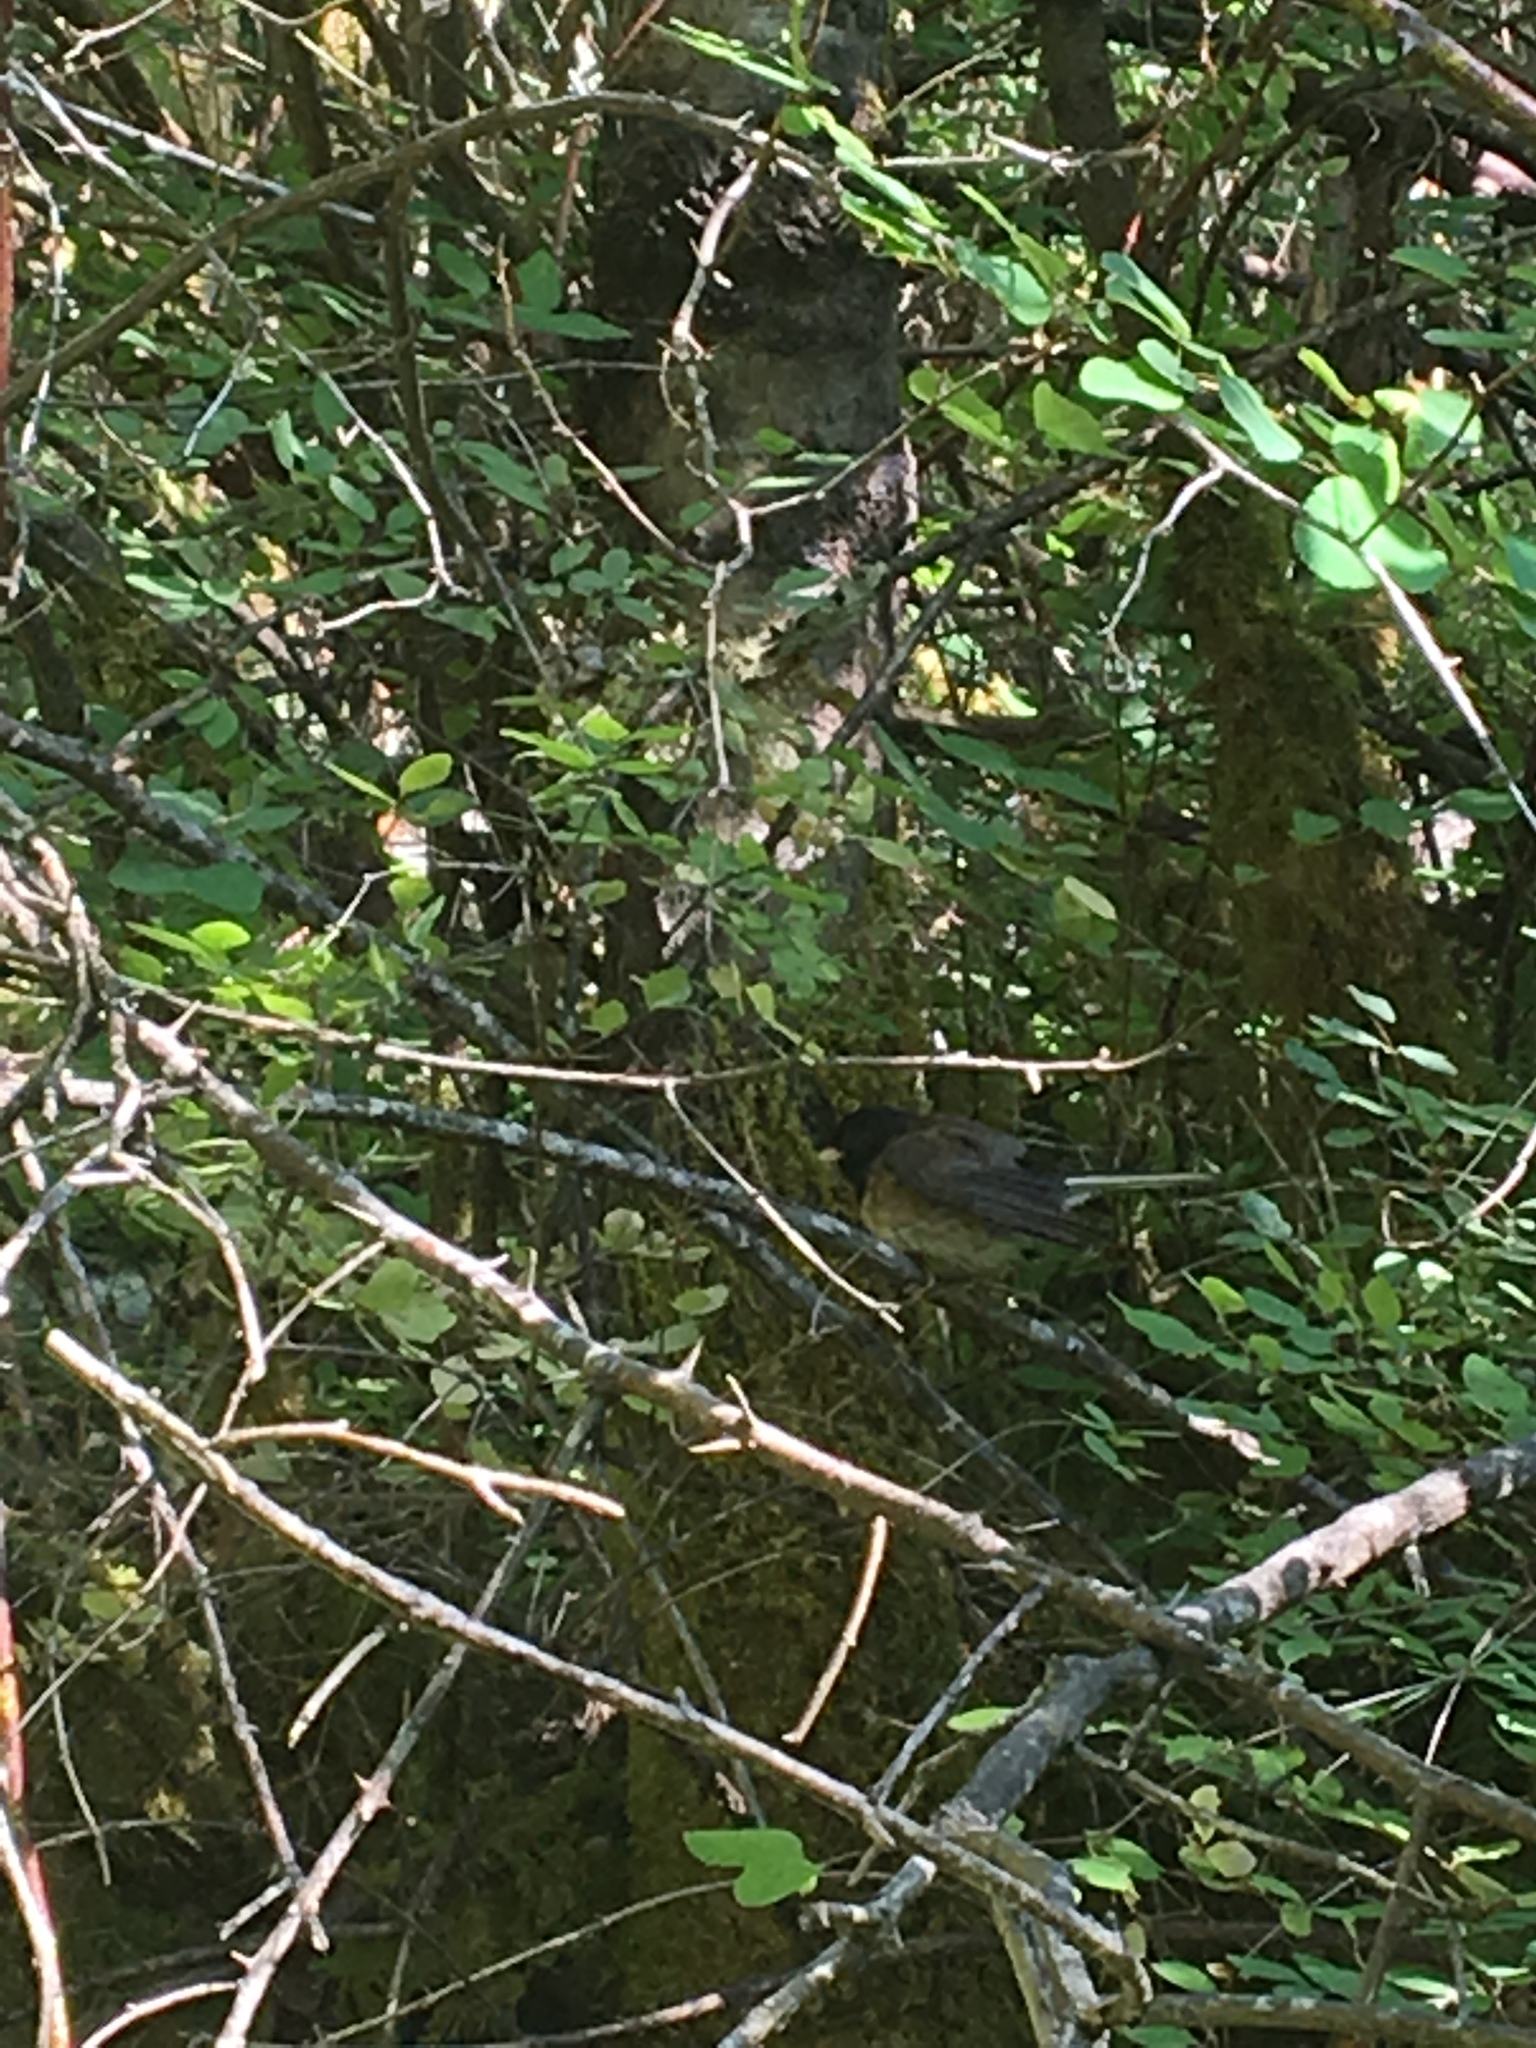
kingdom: Animalia
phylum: Chordata
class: Aves
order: Passeriformes
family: Passerellidae
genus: Junco
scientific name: Junco hyemalis
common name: Dark-eyed junco
